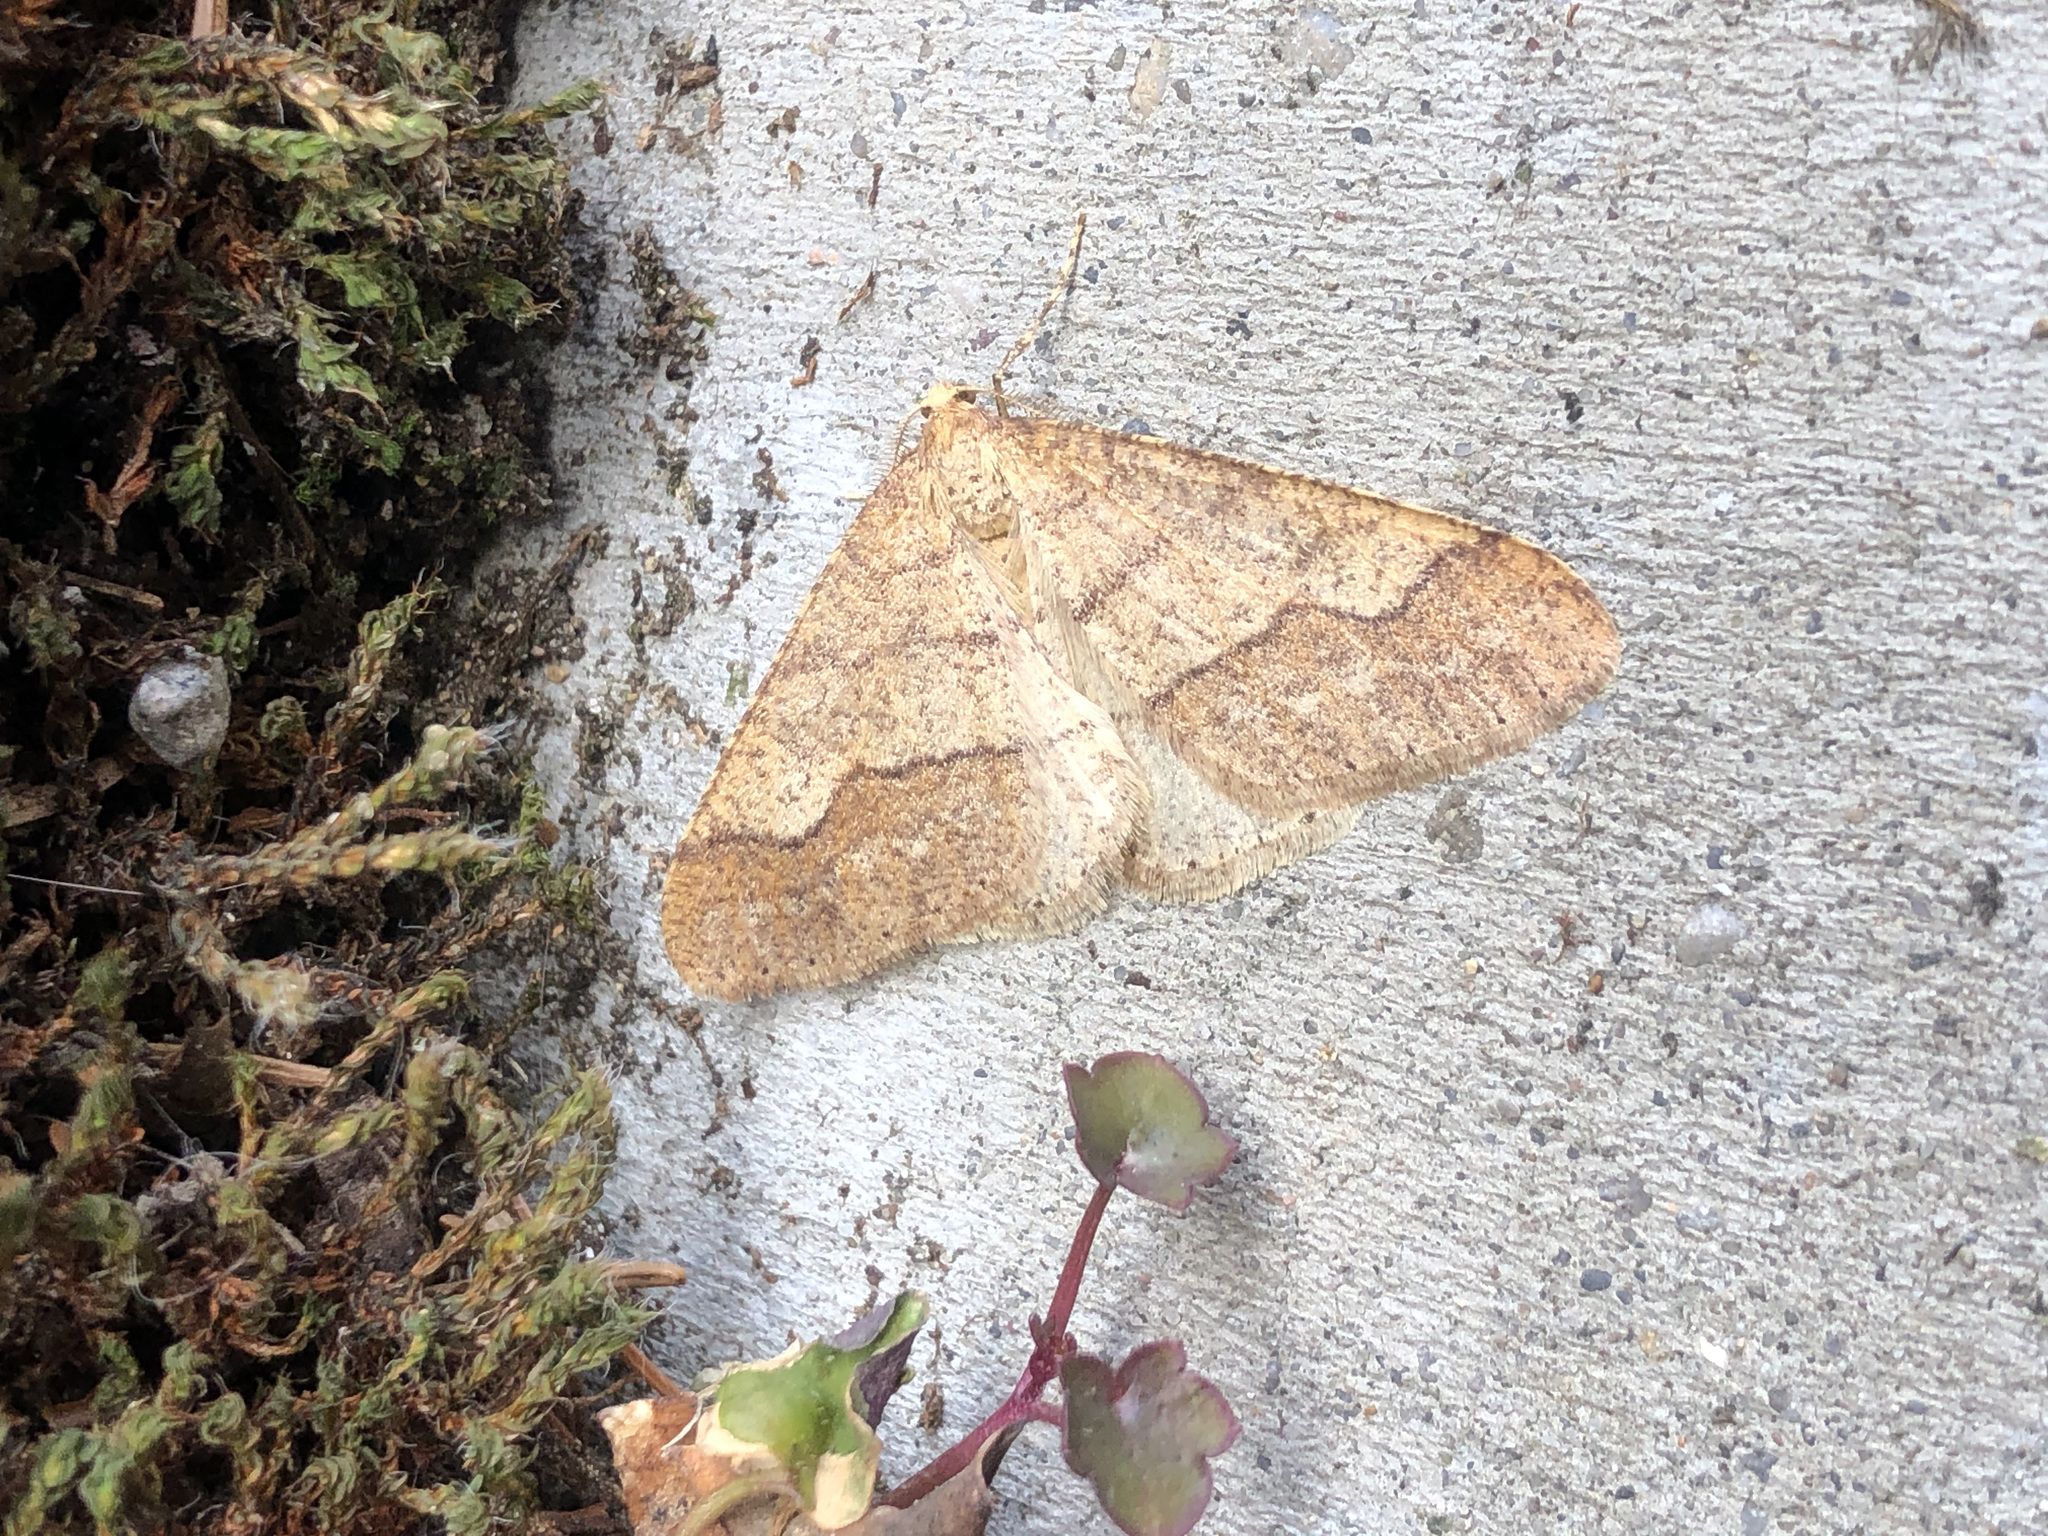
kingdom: Animalia
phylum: Arthropoda
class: Insecta
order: Lepidoptera
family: Geometridae
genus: Agriopis
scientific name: Agriopis marginaria
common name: Dotted border
